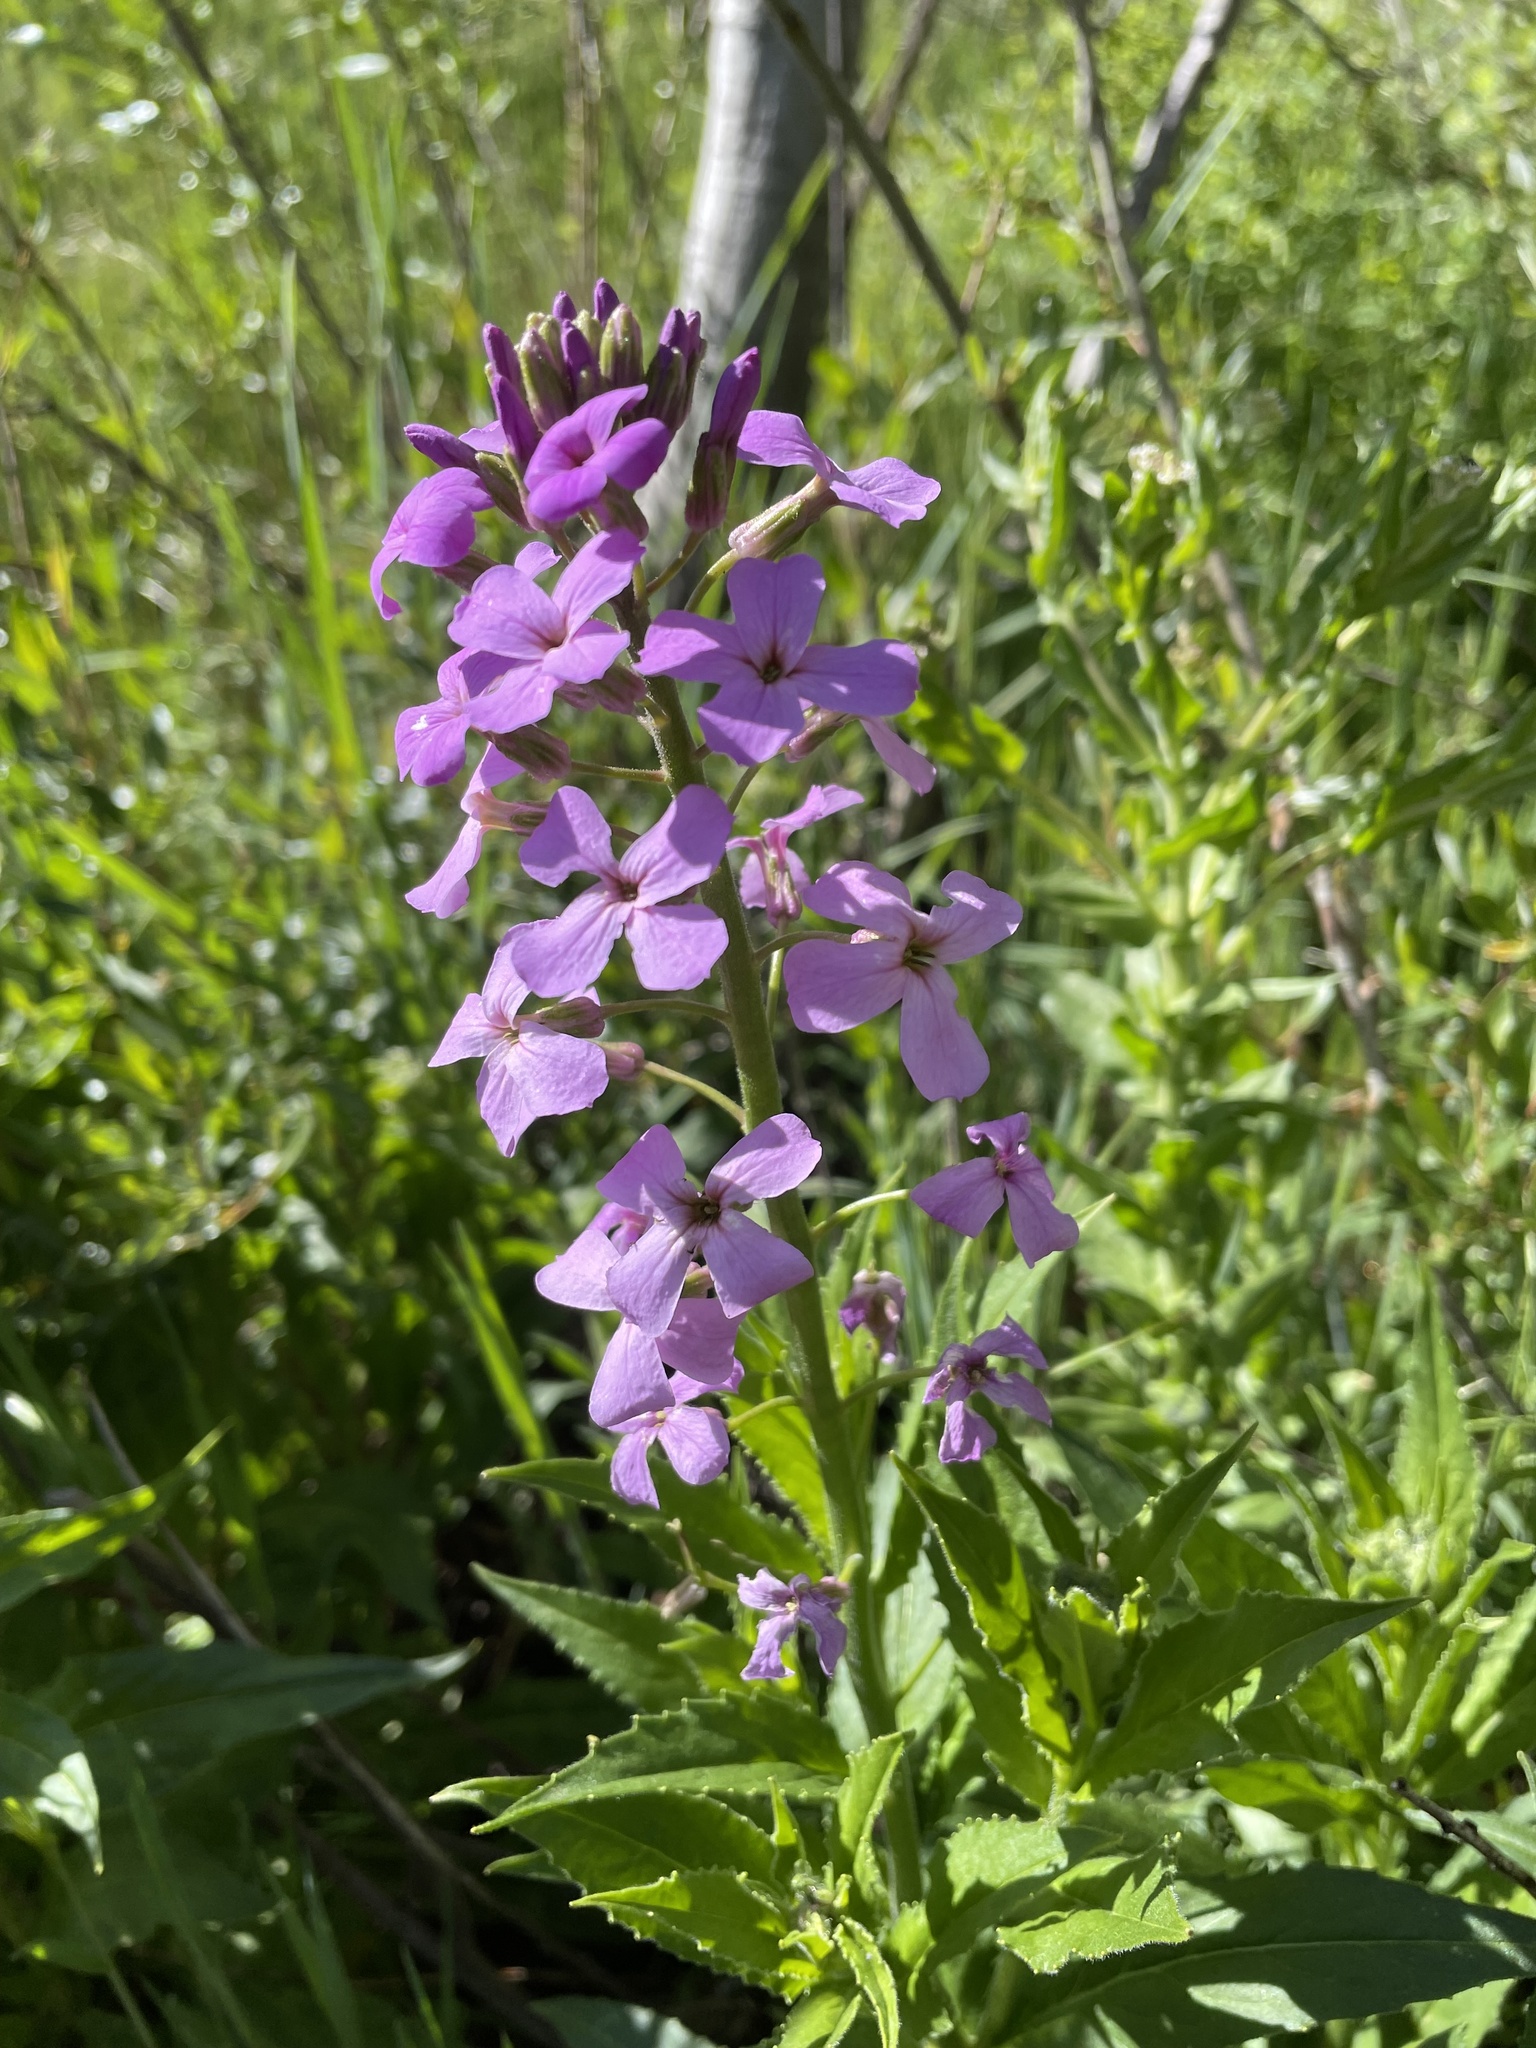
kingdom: Plantae
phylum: Tracheophyta
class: Magnoliopsida
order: Brassicales
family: Brassicaceae
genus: Hesperis
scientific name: Hesperis matronalis
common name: Dame's-violet
